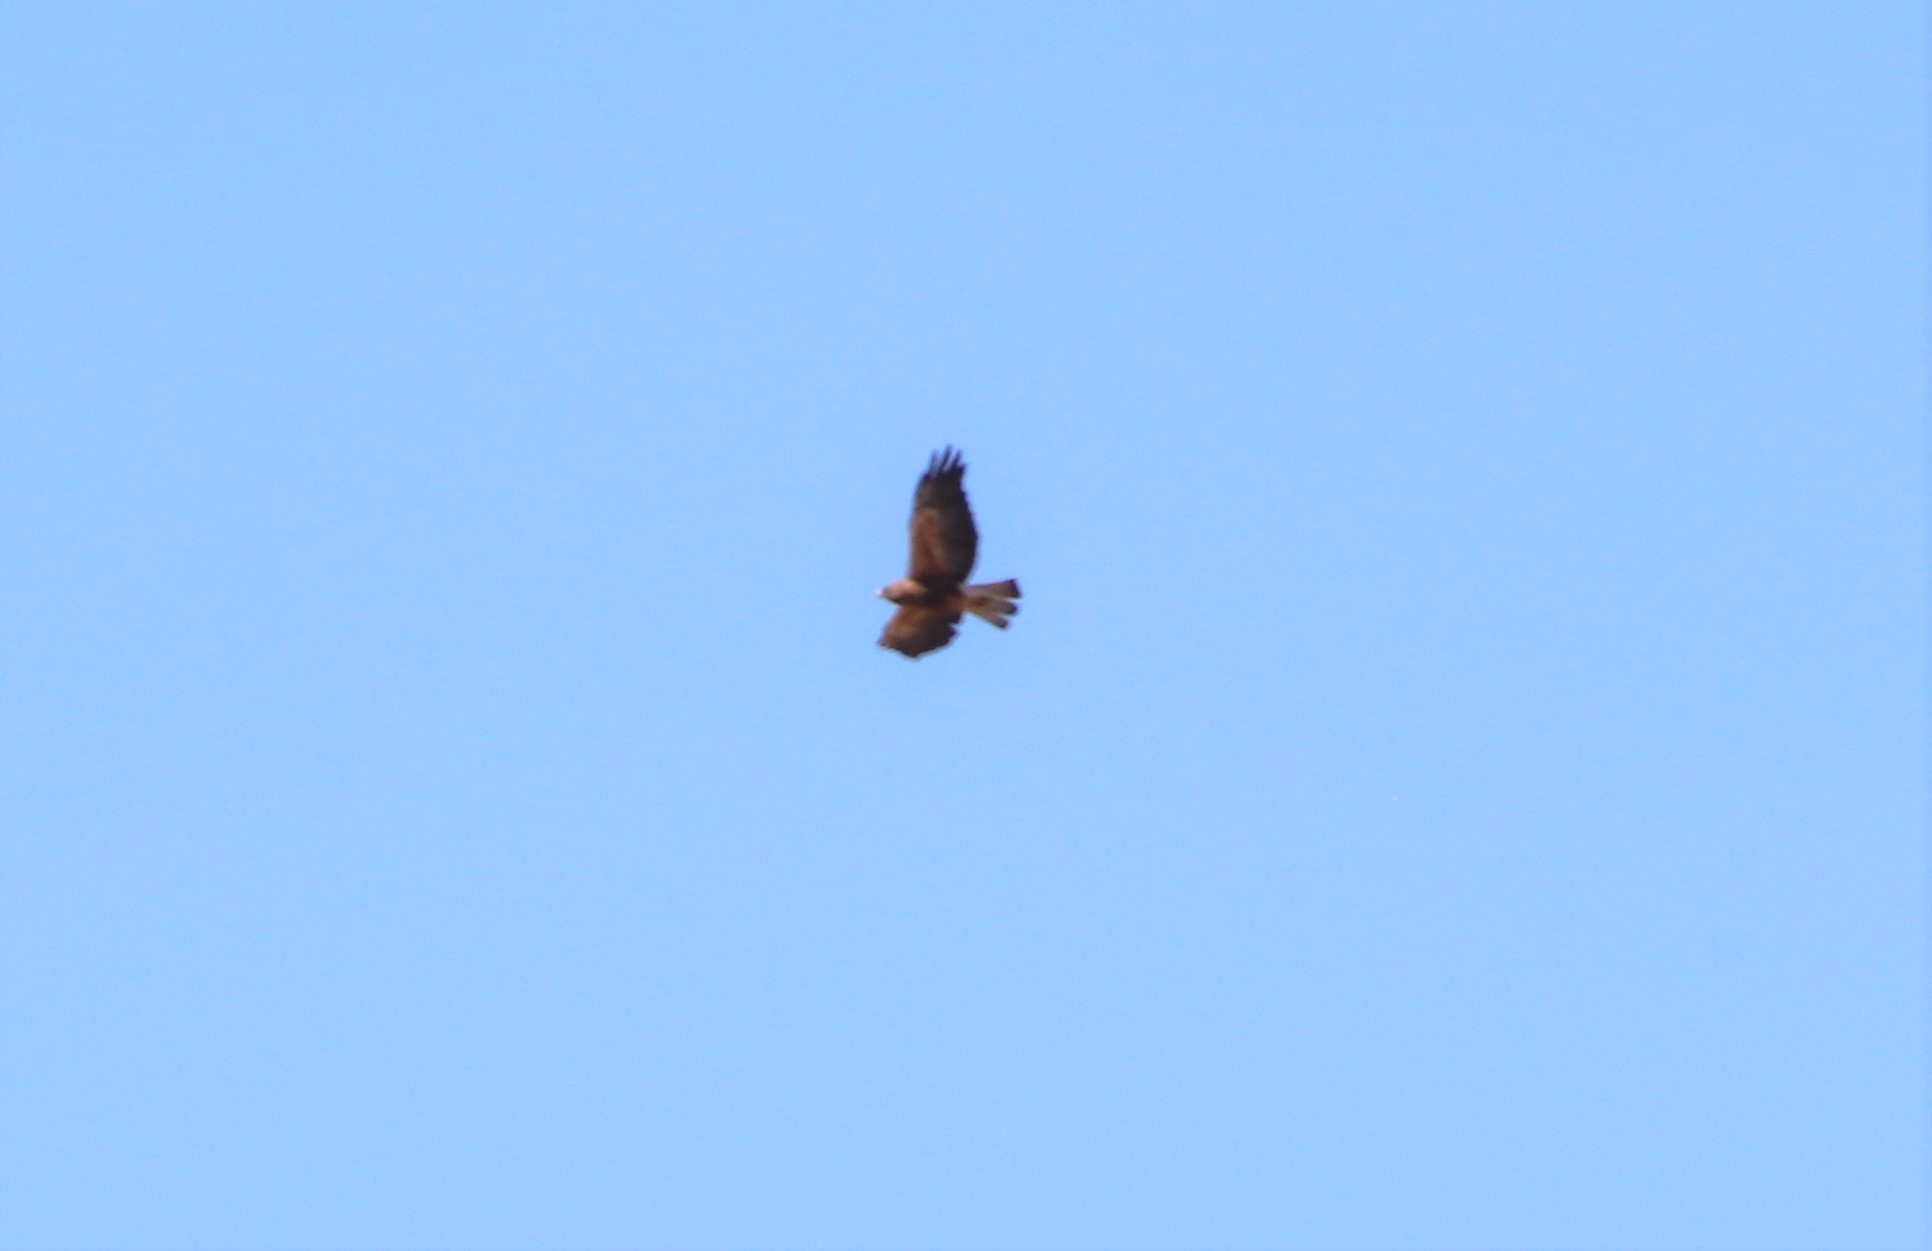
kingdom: Animalia
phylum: Chordata
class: Aves
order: Accipitriformes
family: Accipitridae
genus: Buteo
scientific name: Buteo swainsoni
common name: Swainson's hawk
